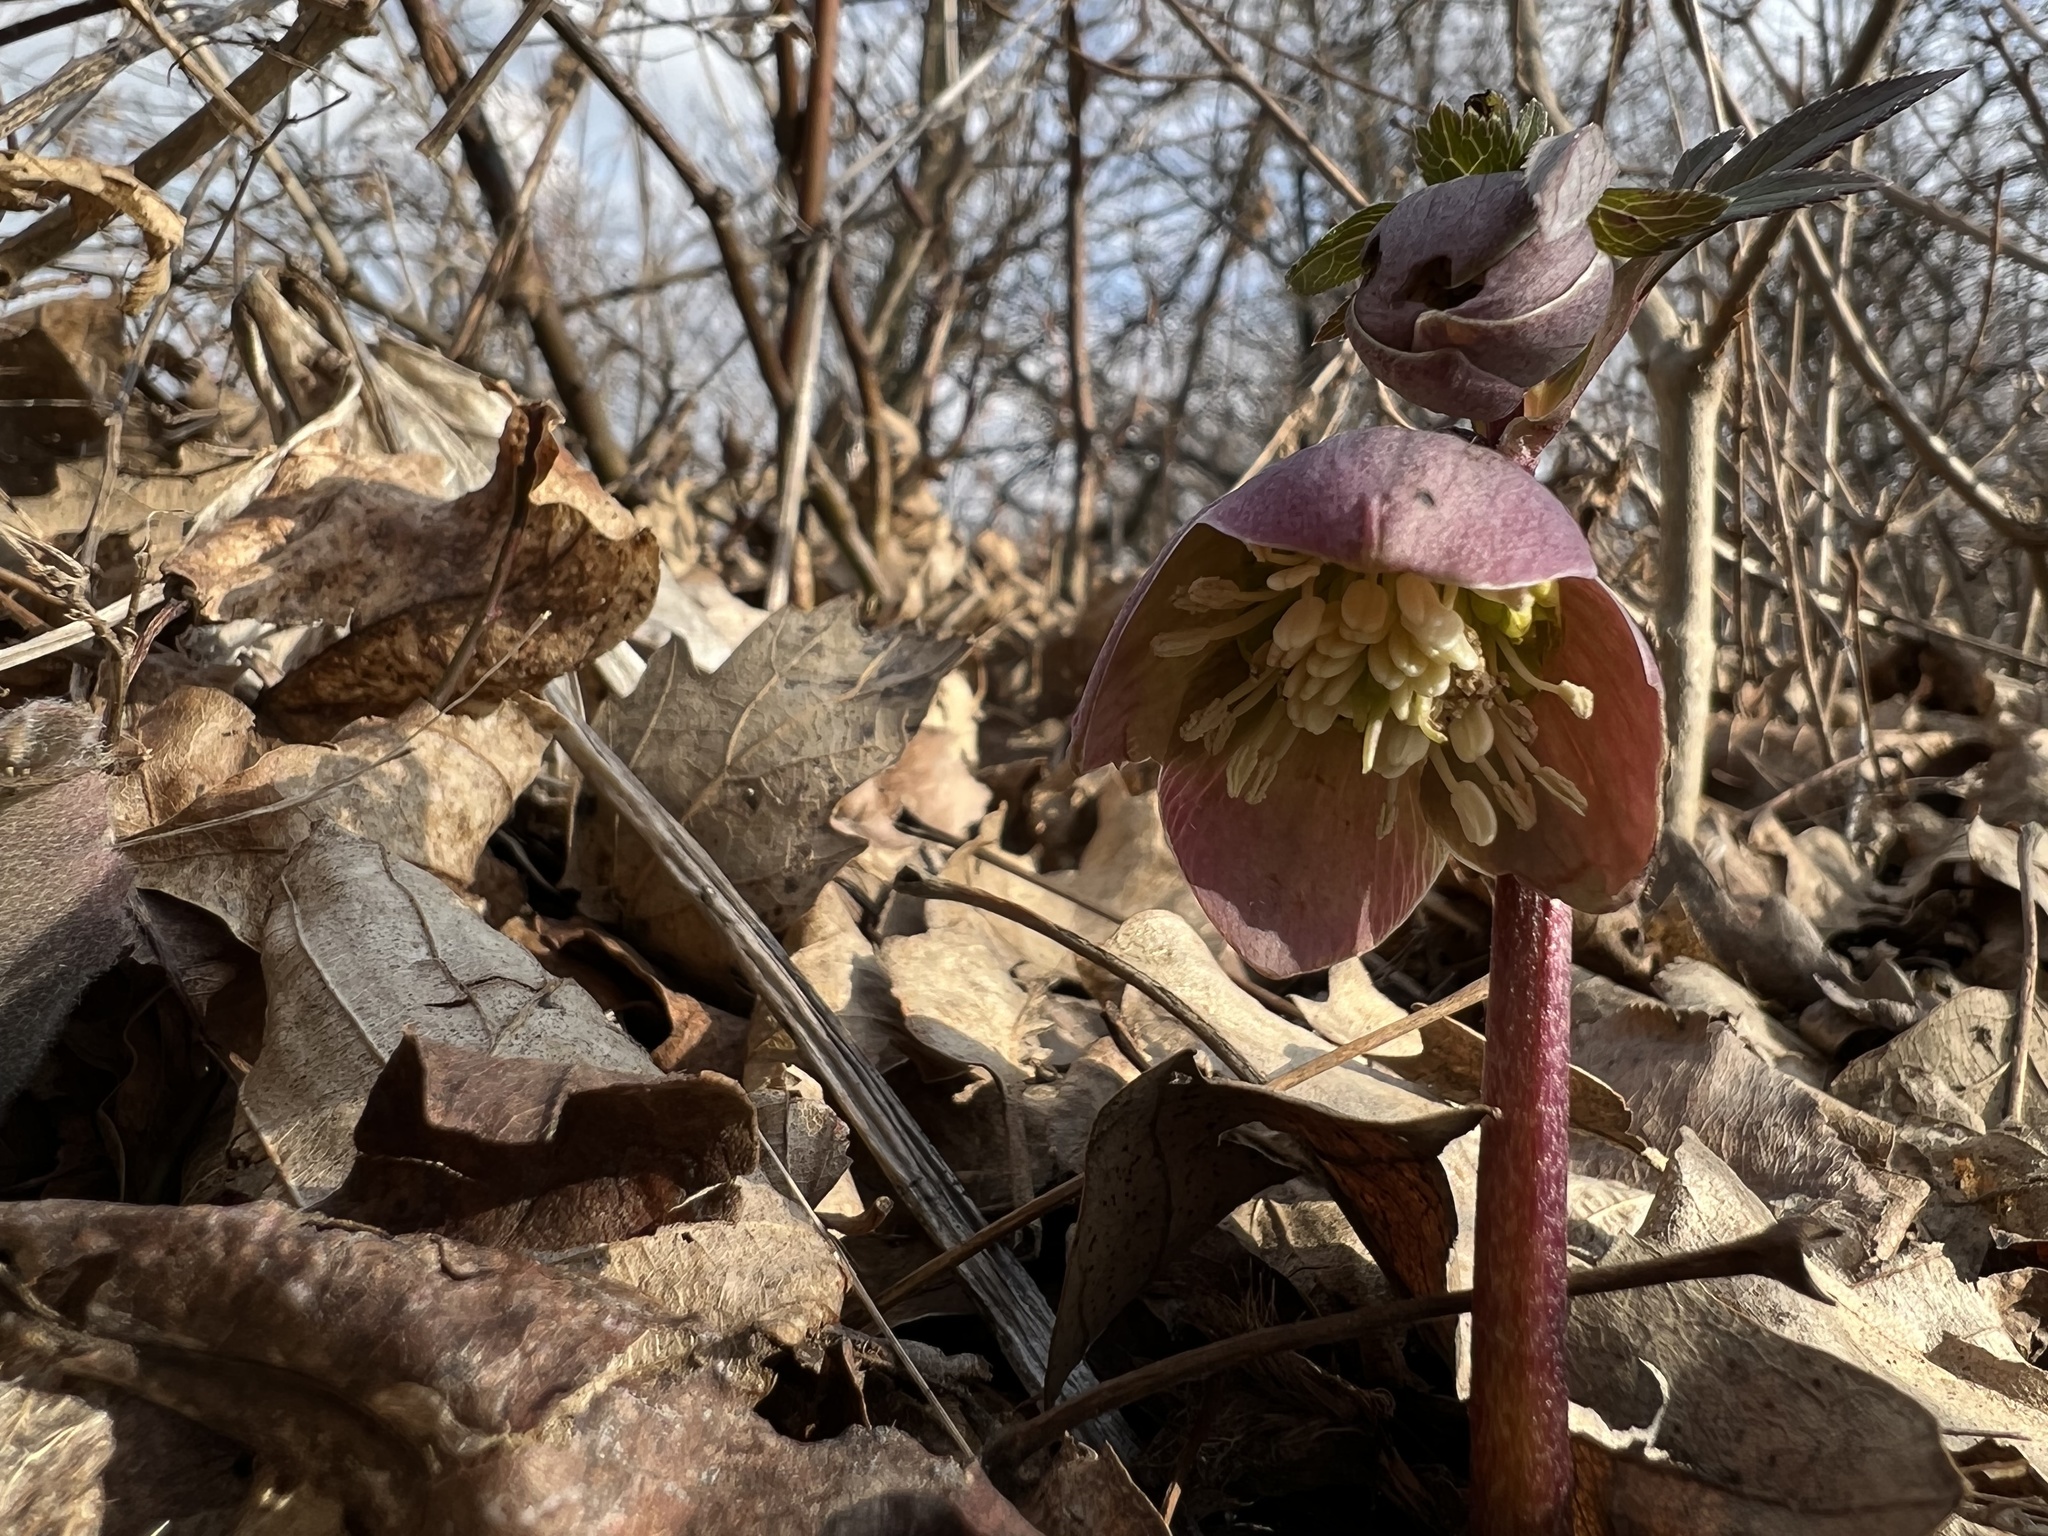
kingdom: Plantae
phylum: Tracheophyta
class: Magnoliopsida
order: Ranunculales
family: Ranunculaceae
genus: Helleborus
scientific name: Helleborus purpurascens
